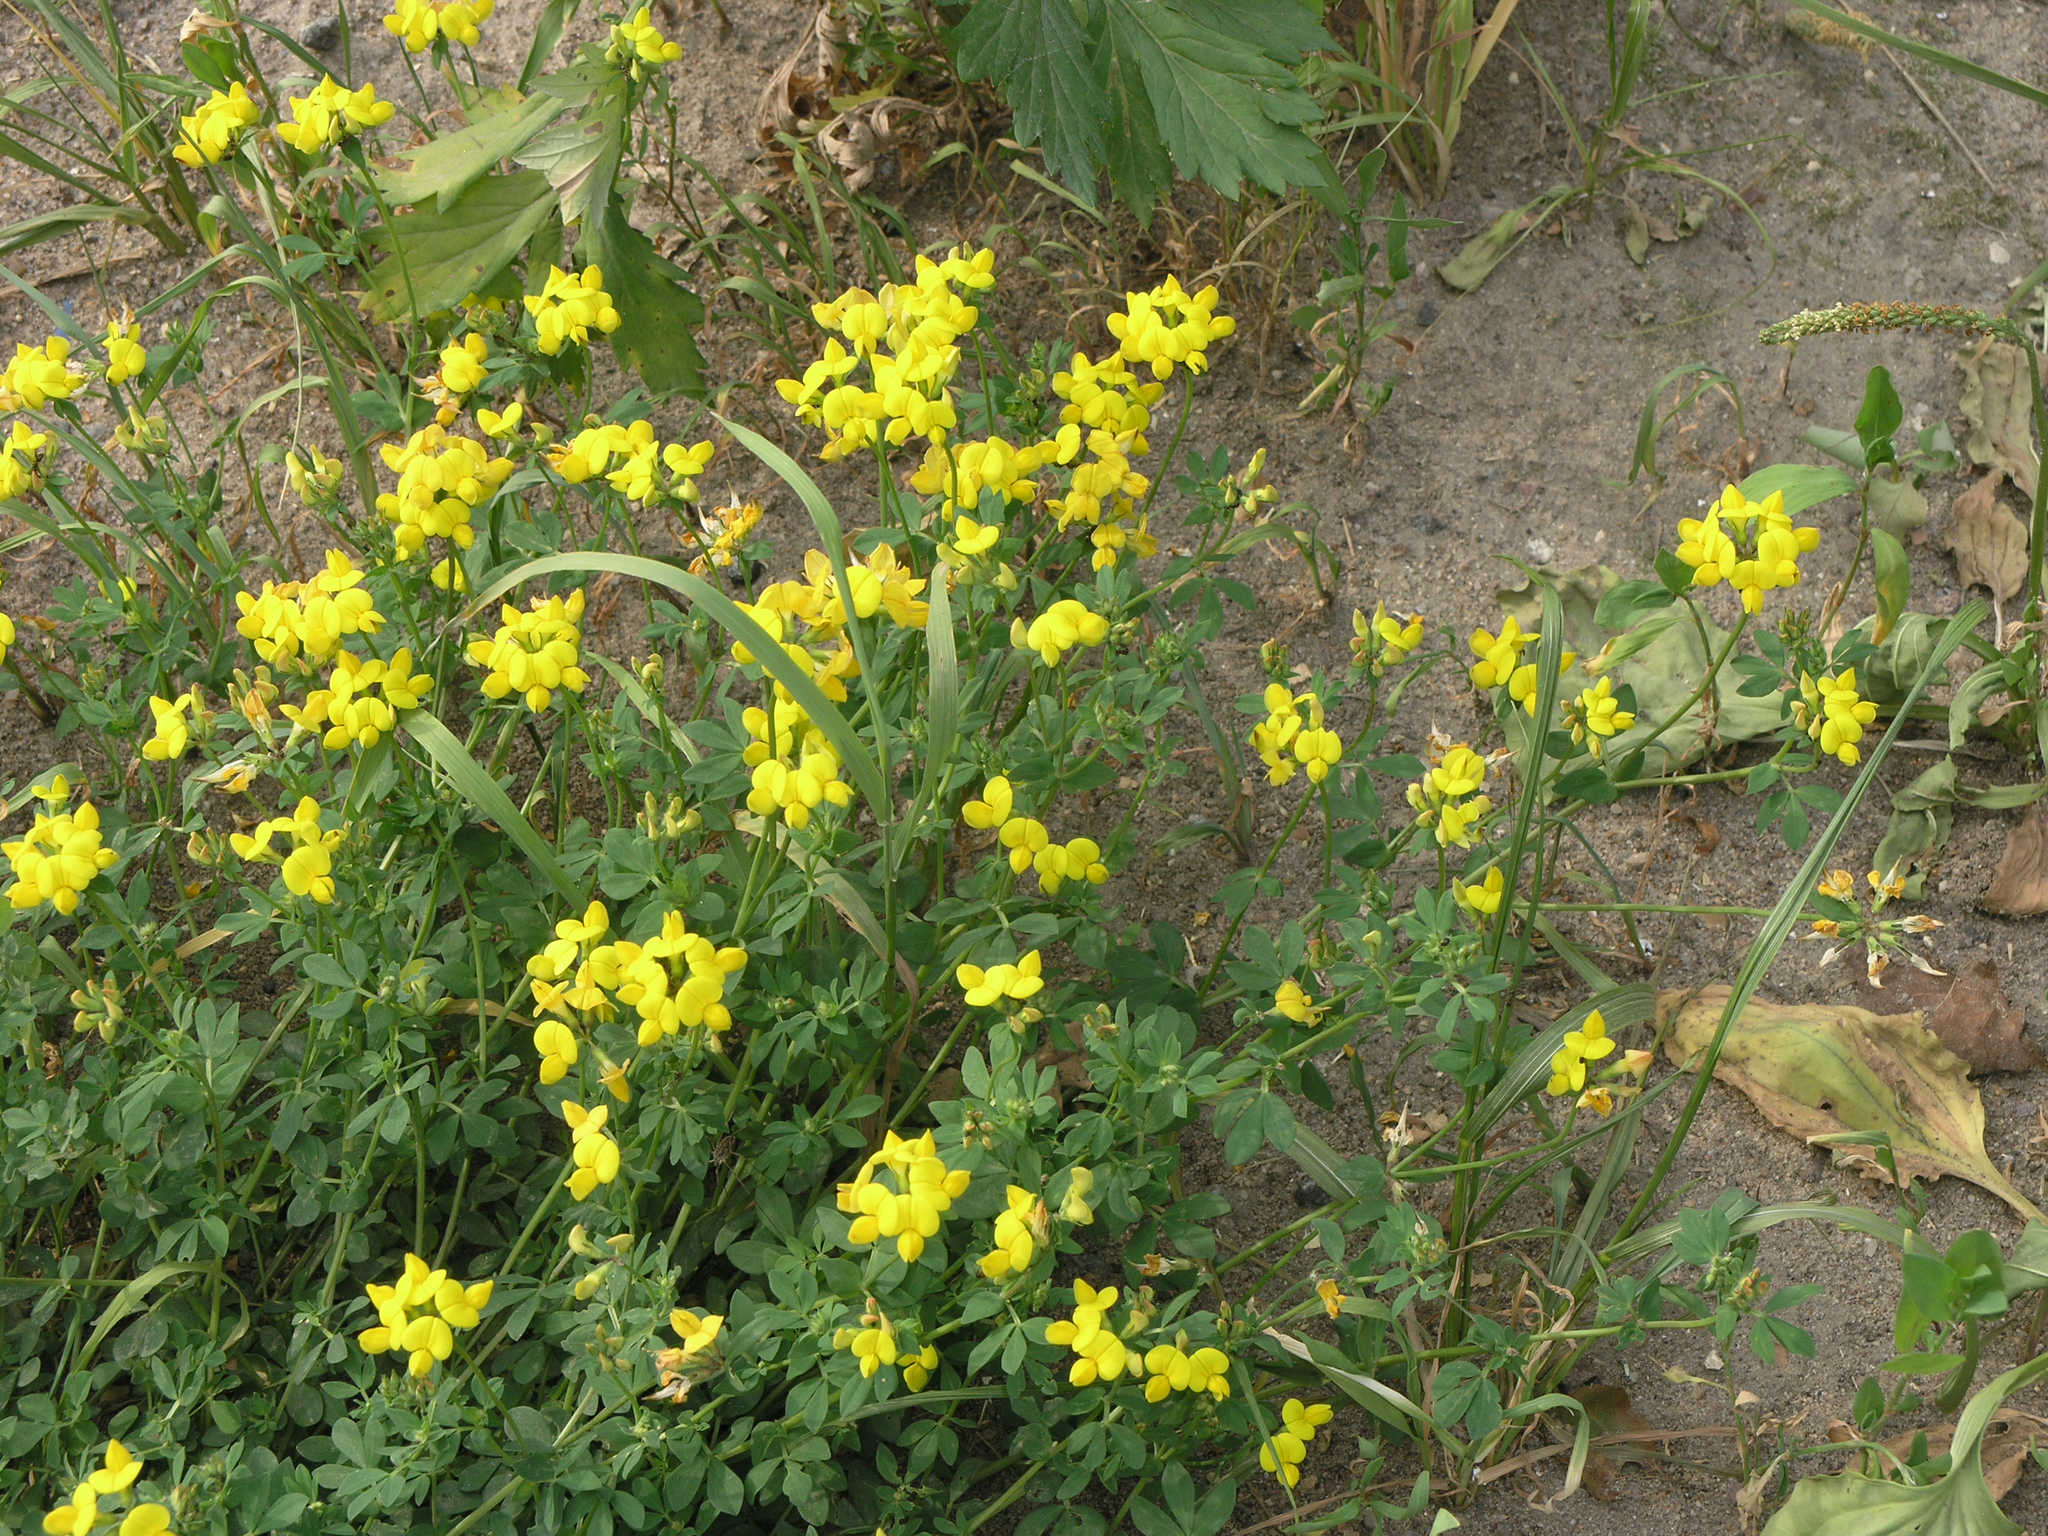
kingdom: Plantae
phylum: Tracheophyta
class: Magnoliopsida
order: Fabales
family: Fabaceae
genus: Lotus
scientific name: Lotus corniculatus
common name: Common bird's-foot-trefoil
